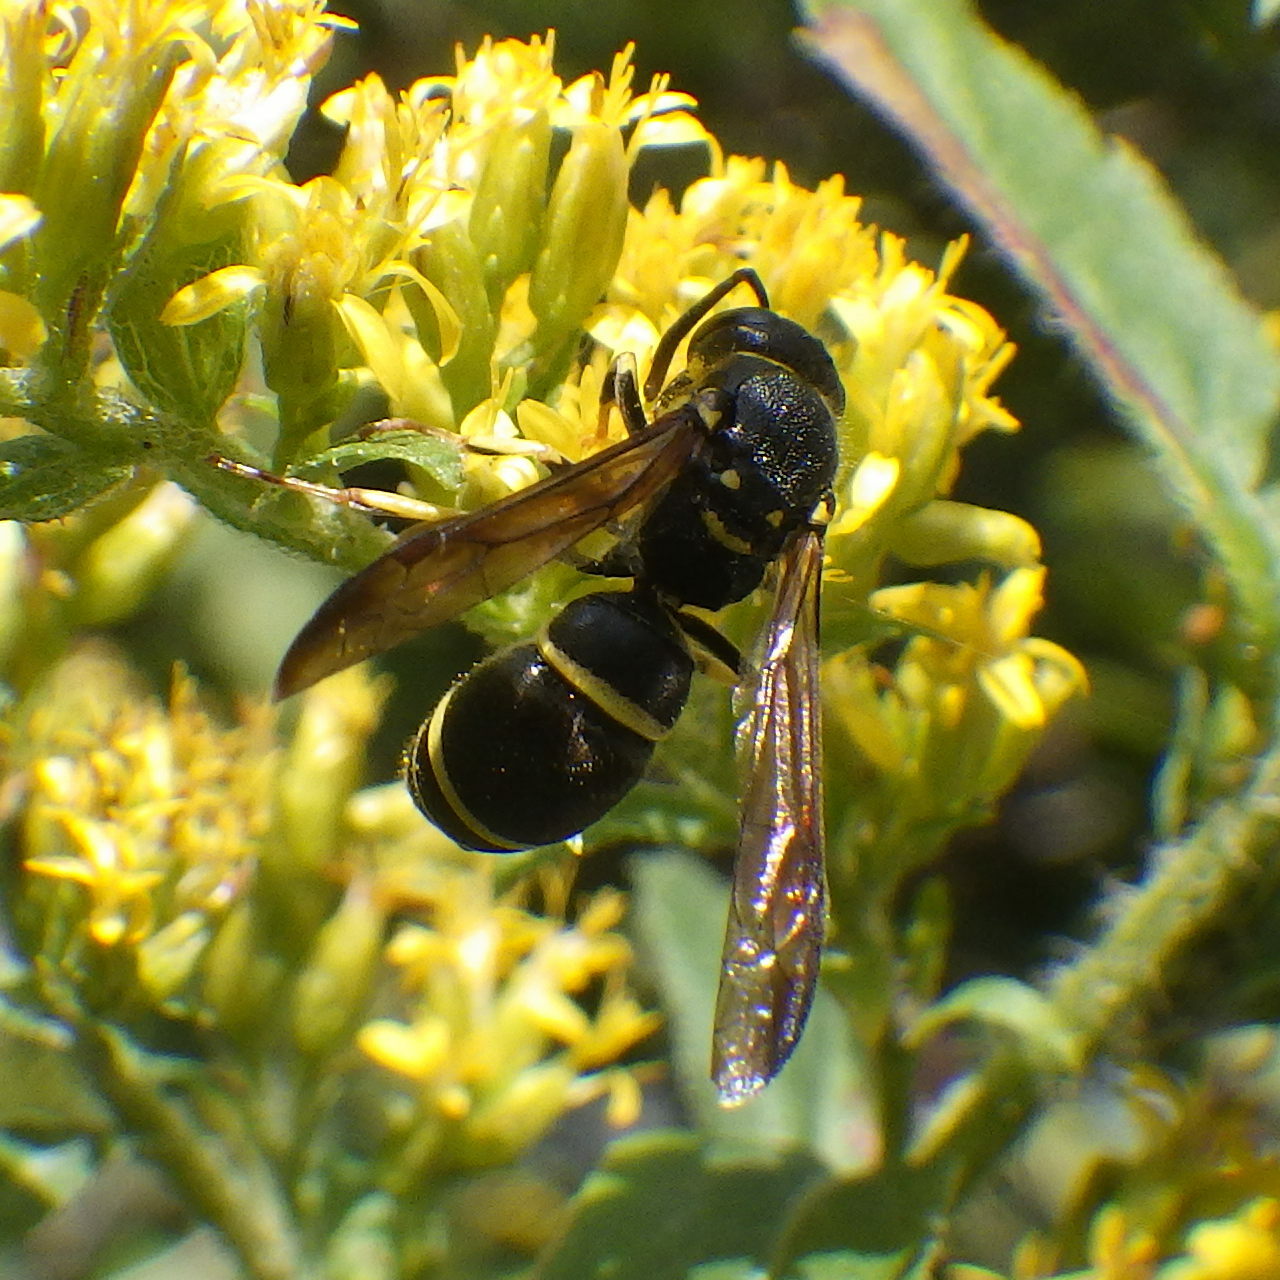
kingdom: Animalia
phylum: Arthropoda
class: Insecta
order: Hymenoptera
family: Vespidae
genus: Ancistrocerus
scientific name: Ancistrocerus adiabatus
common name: Bramble mason wasp
